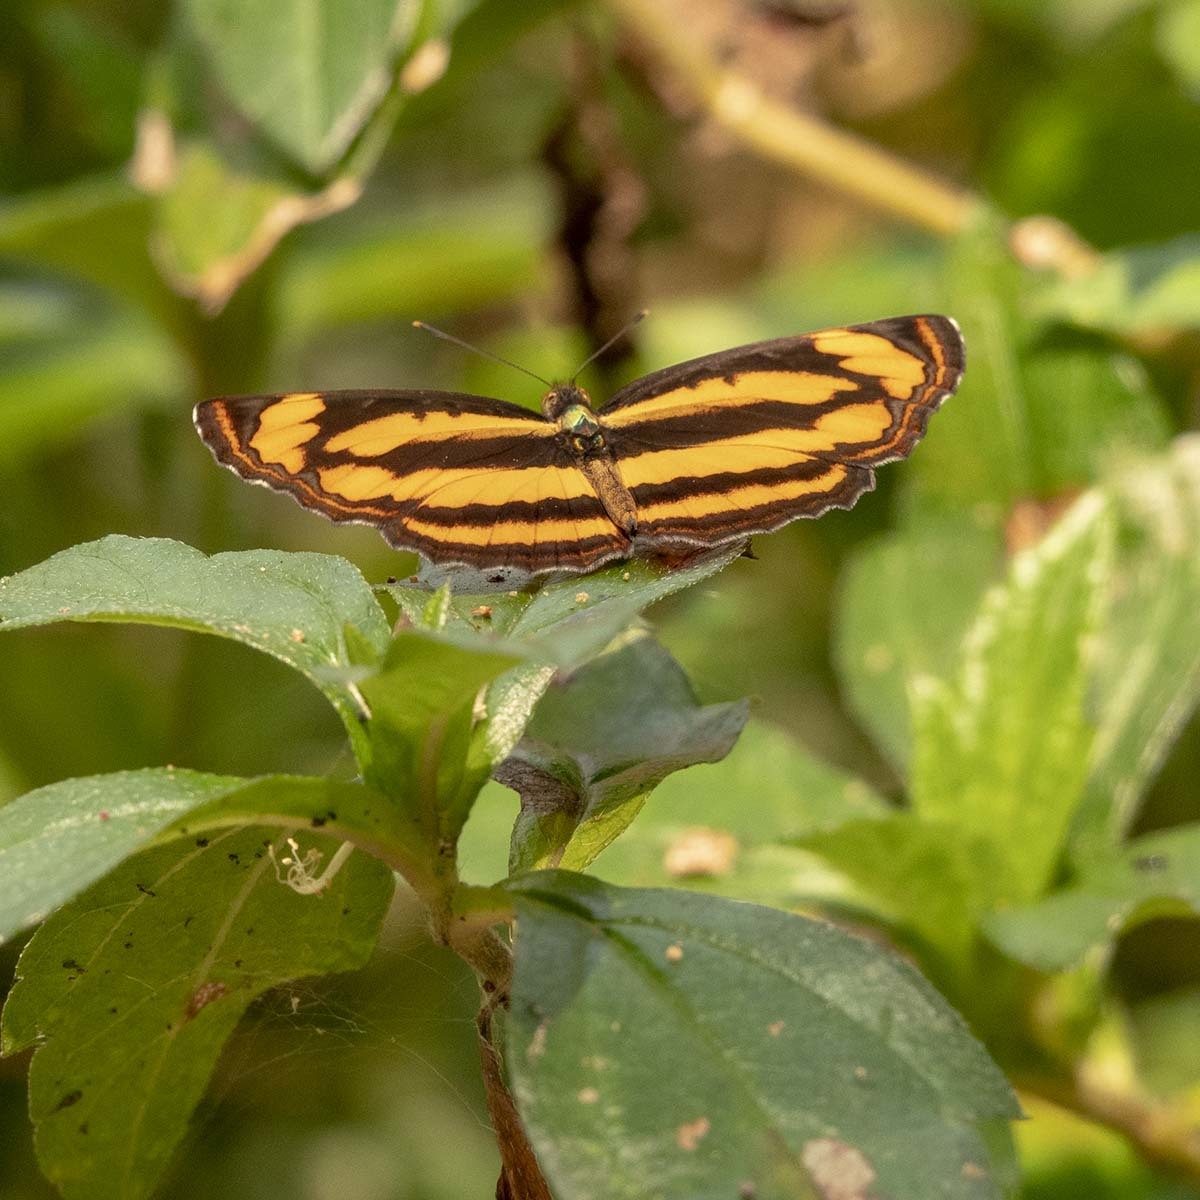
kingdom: Animalia
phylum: Arthropoda
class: Insecta
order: Lepidoptera
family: Nymphalidae
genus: Pantoporia
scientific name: Pantoporia hordonia
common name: Common lascar
